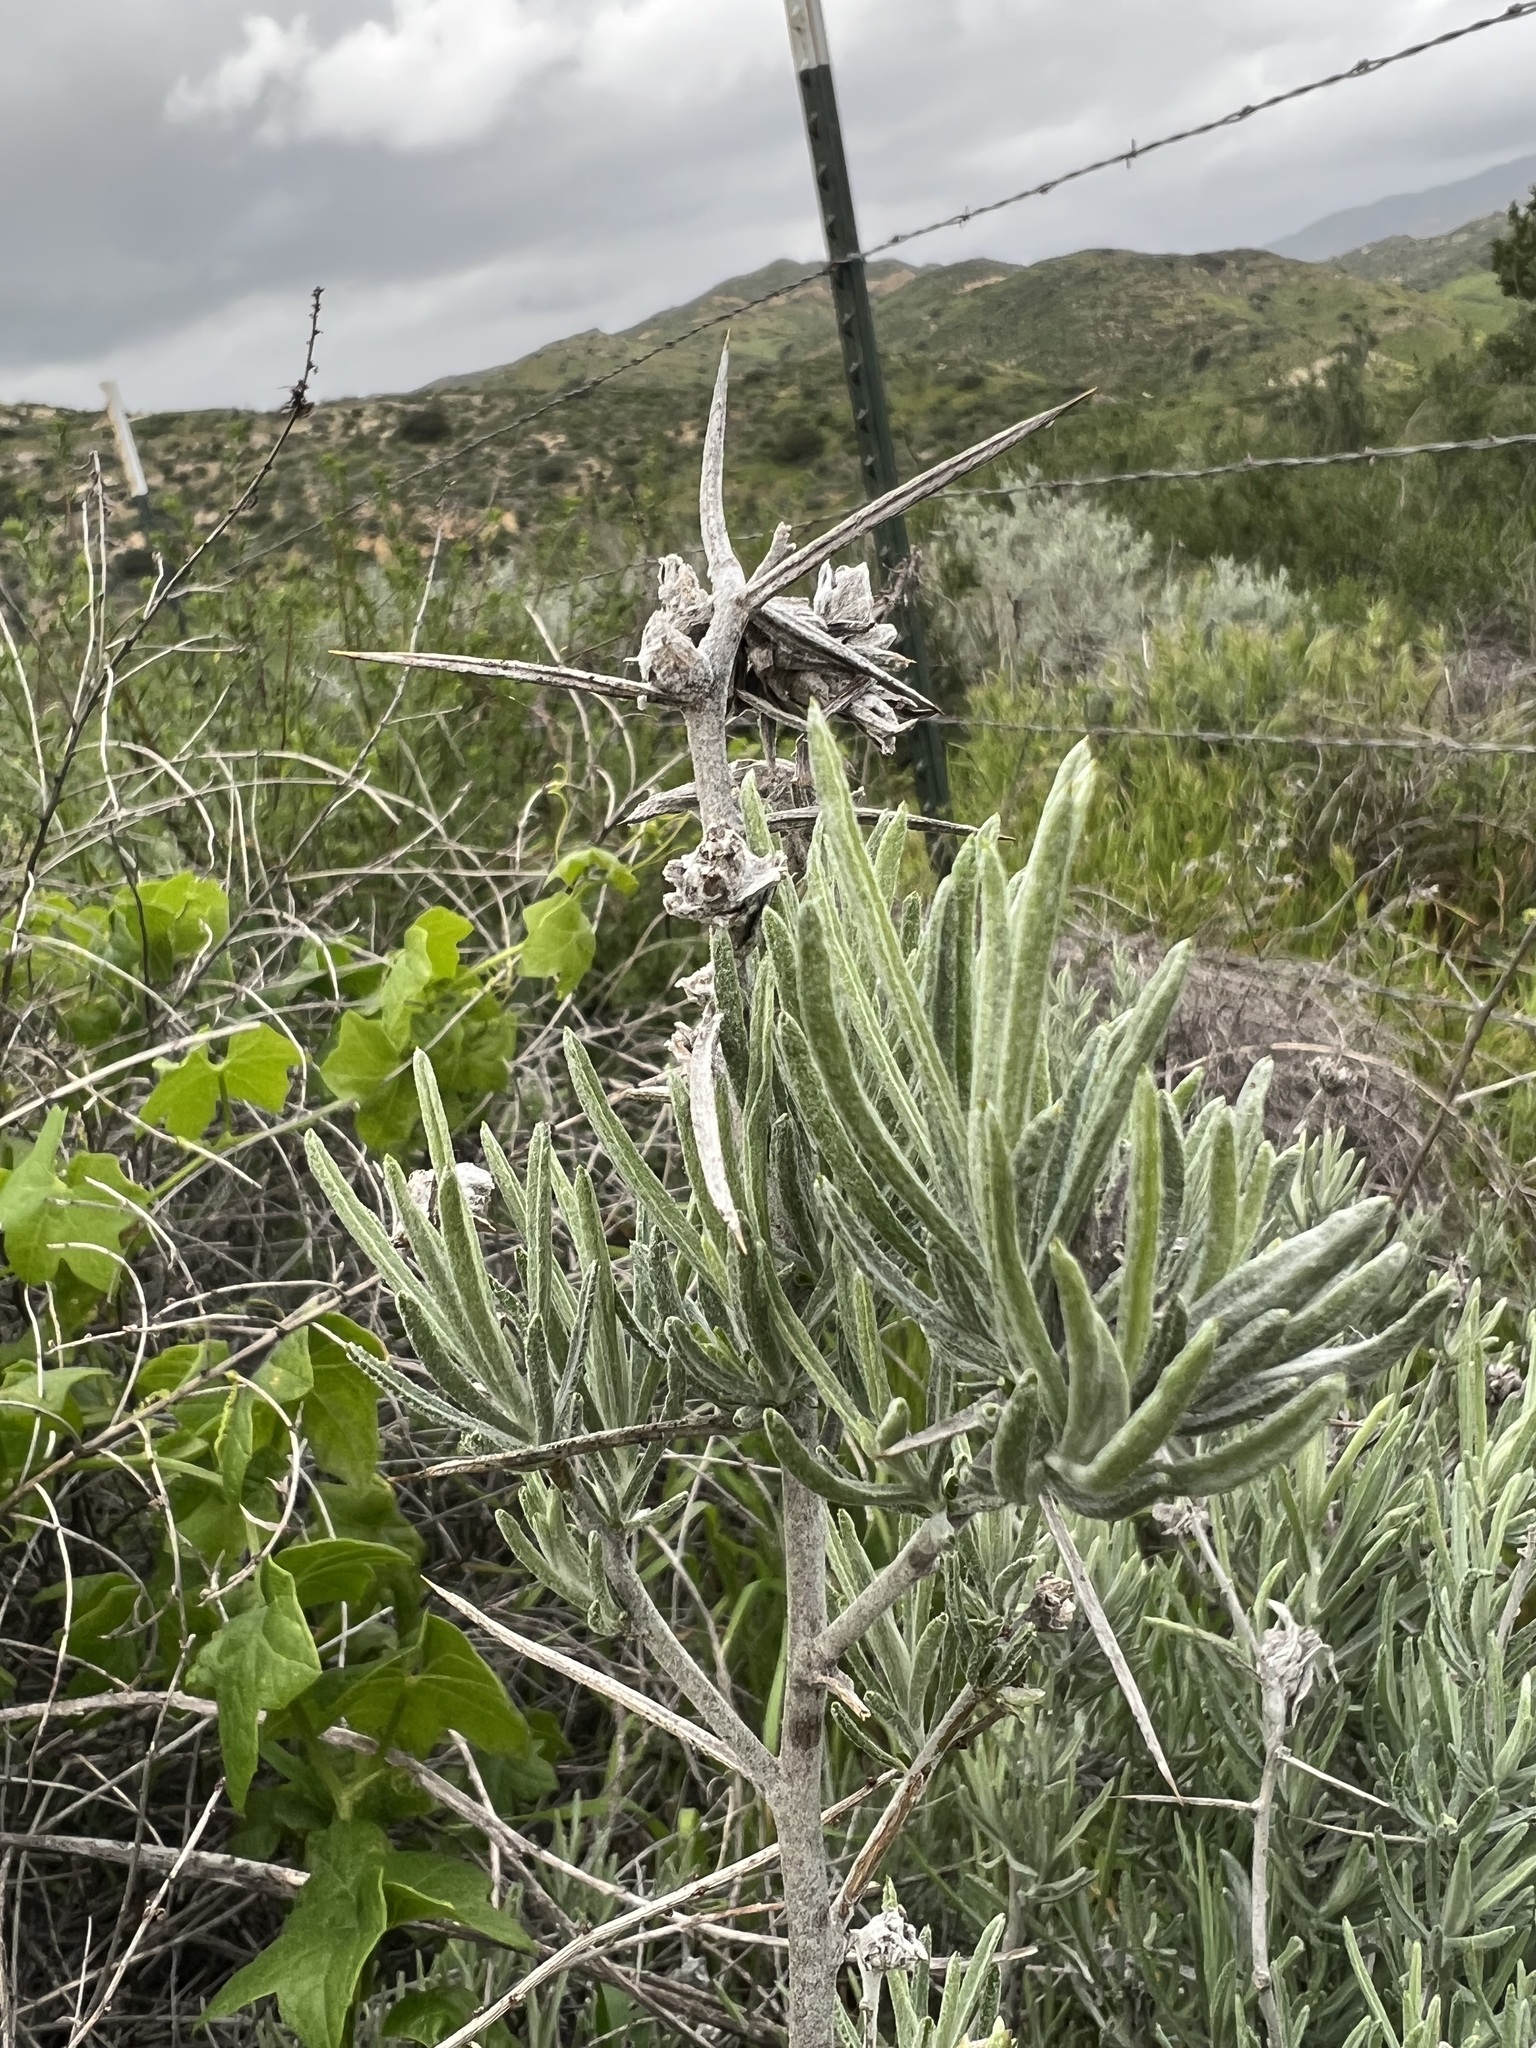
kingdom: Plantae
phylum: Tracheophyta
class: Magnoliopsida
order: Asterales
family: Asteraceae
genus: Tetradymia
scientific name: Tetradymia comosa
